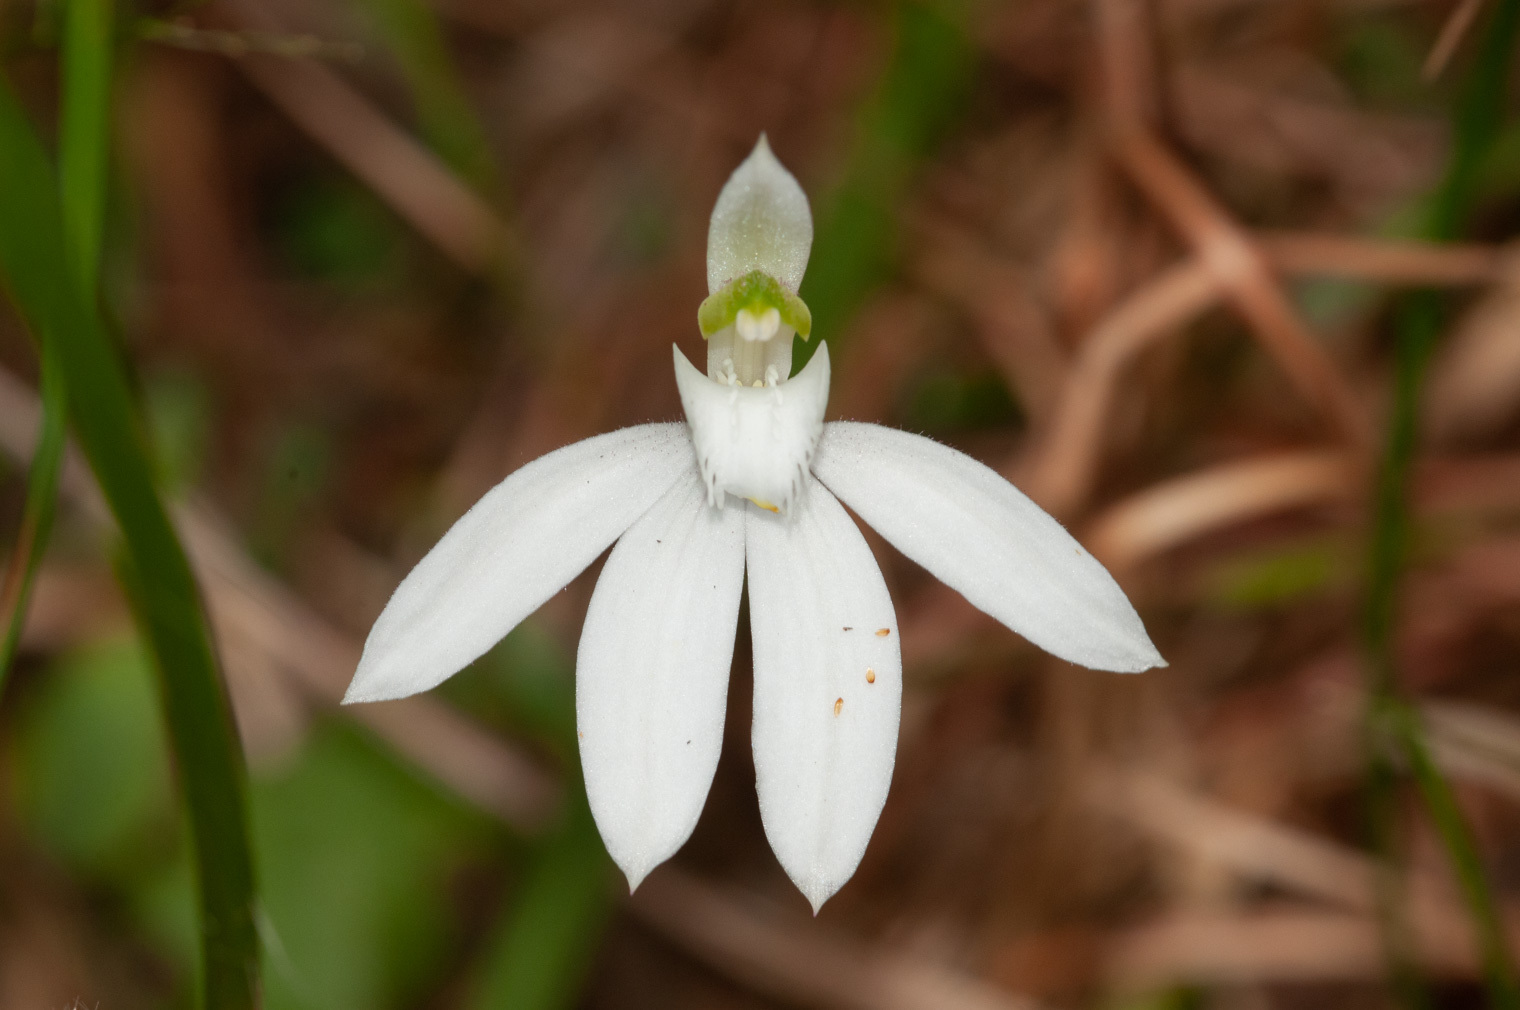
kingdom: Plantae
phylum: Tracheophyta
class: Liliopsida
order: Asparagales
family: Orchidaceae
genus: Caladenia
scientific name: Caladenia picta
